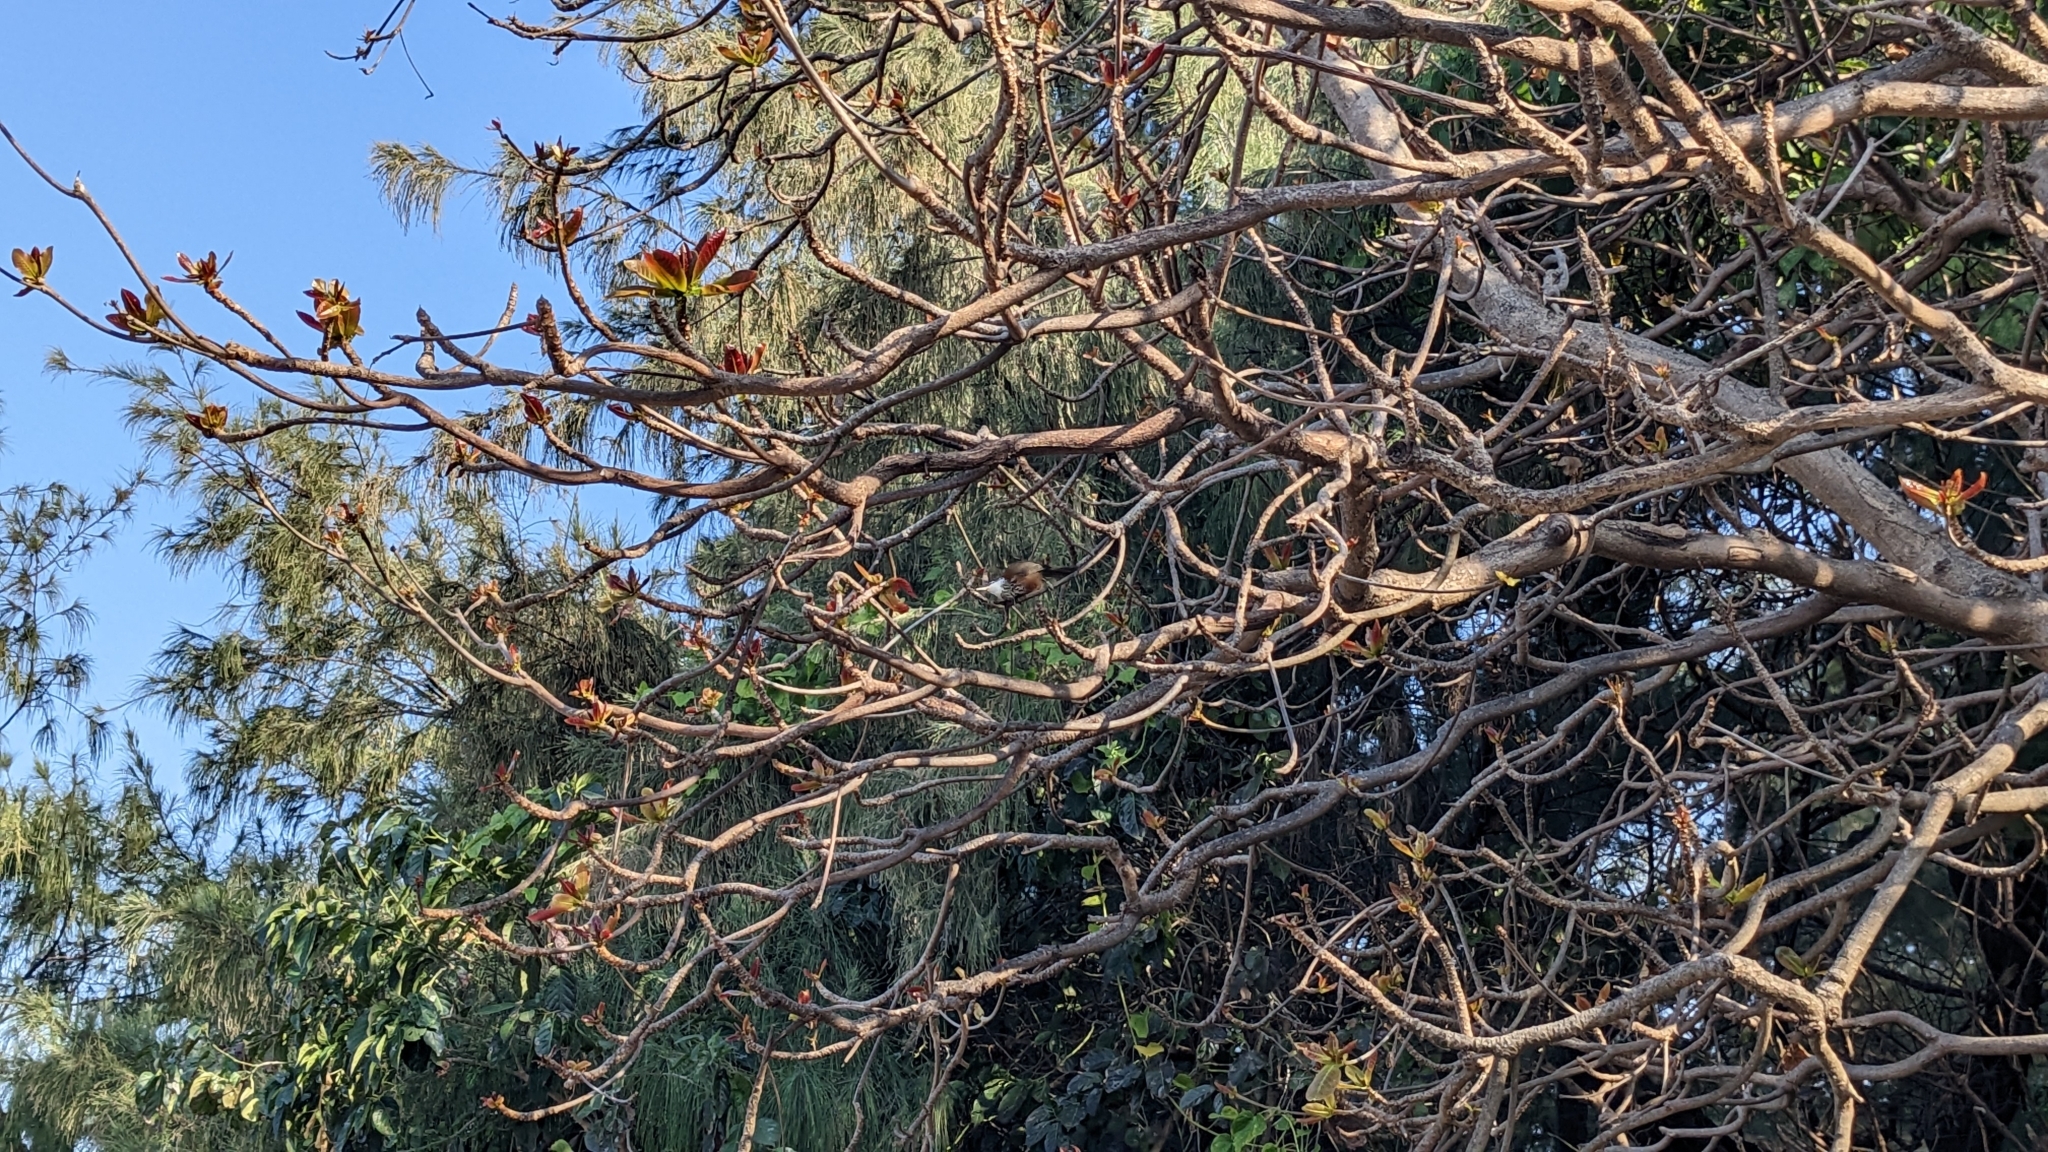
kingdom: Animalia
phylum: Chordata
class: Aves
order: Passeriformes
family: Timaliidae
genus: Pomatorhinus
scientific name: Pomatorhinus musicus
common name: Taiwan scimitar-babbler
